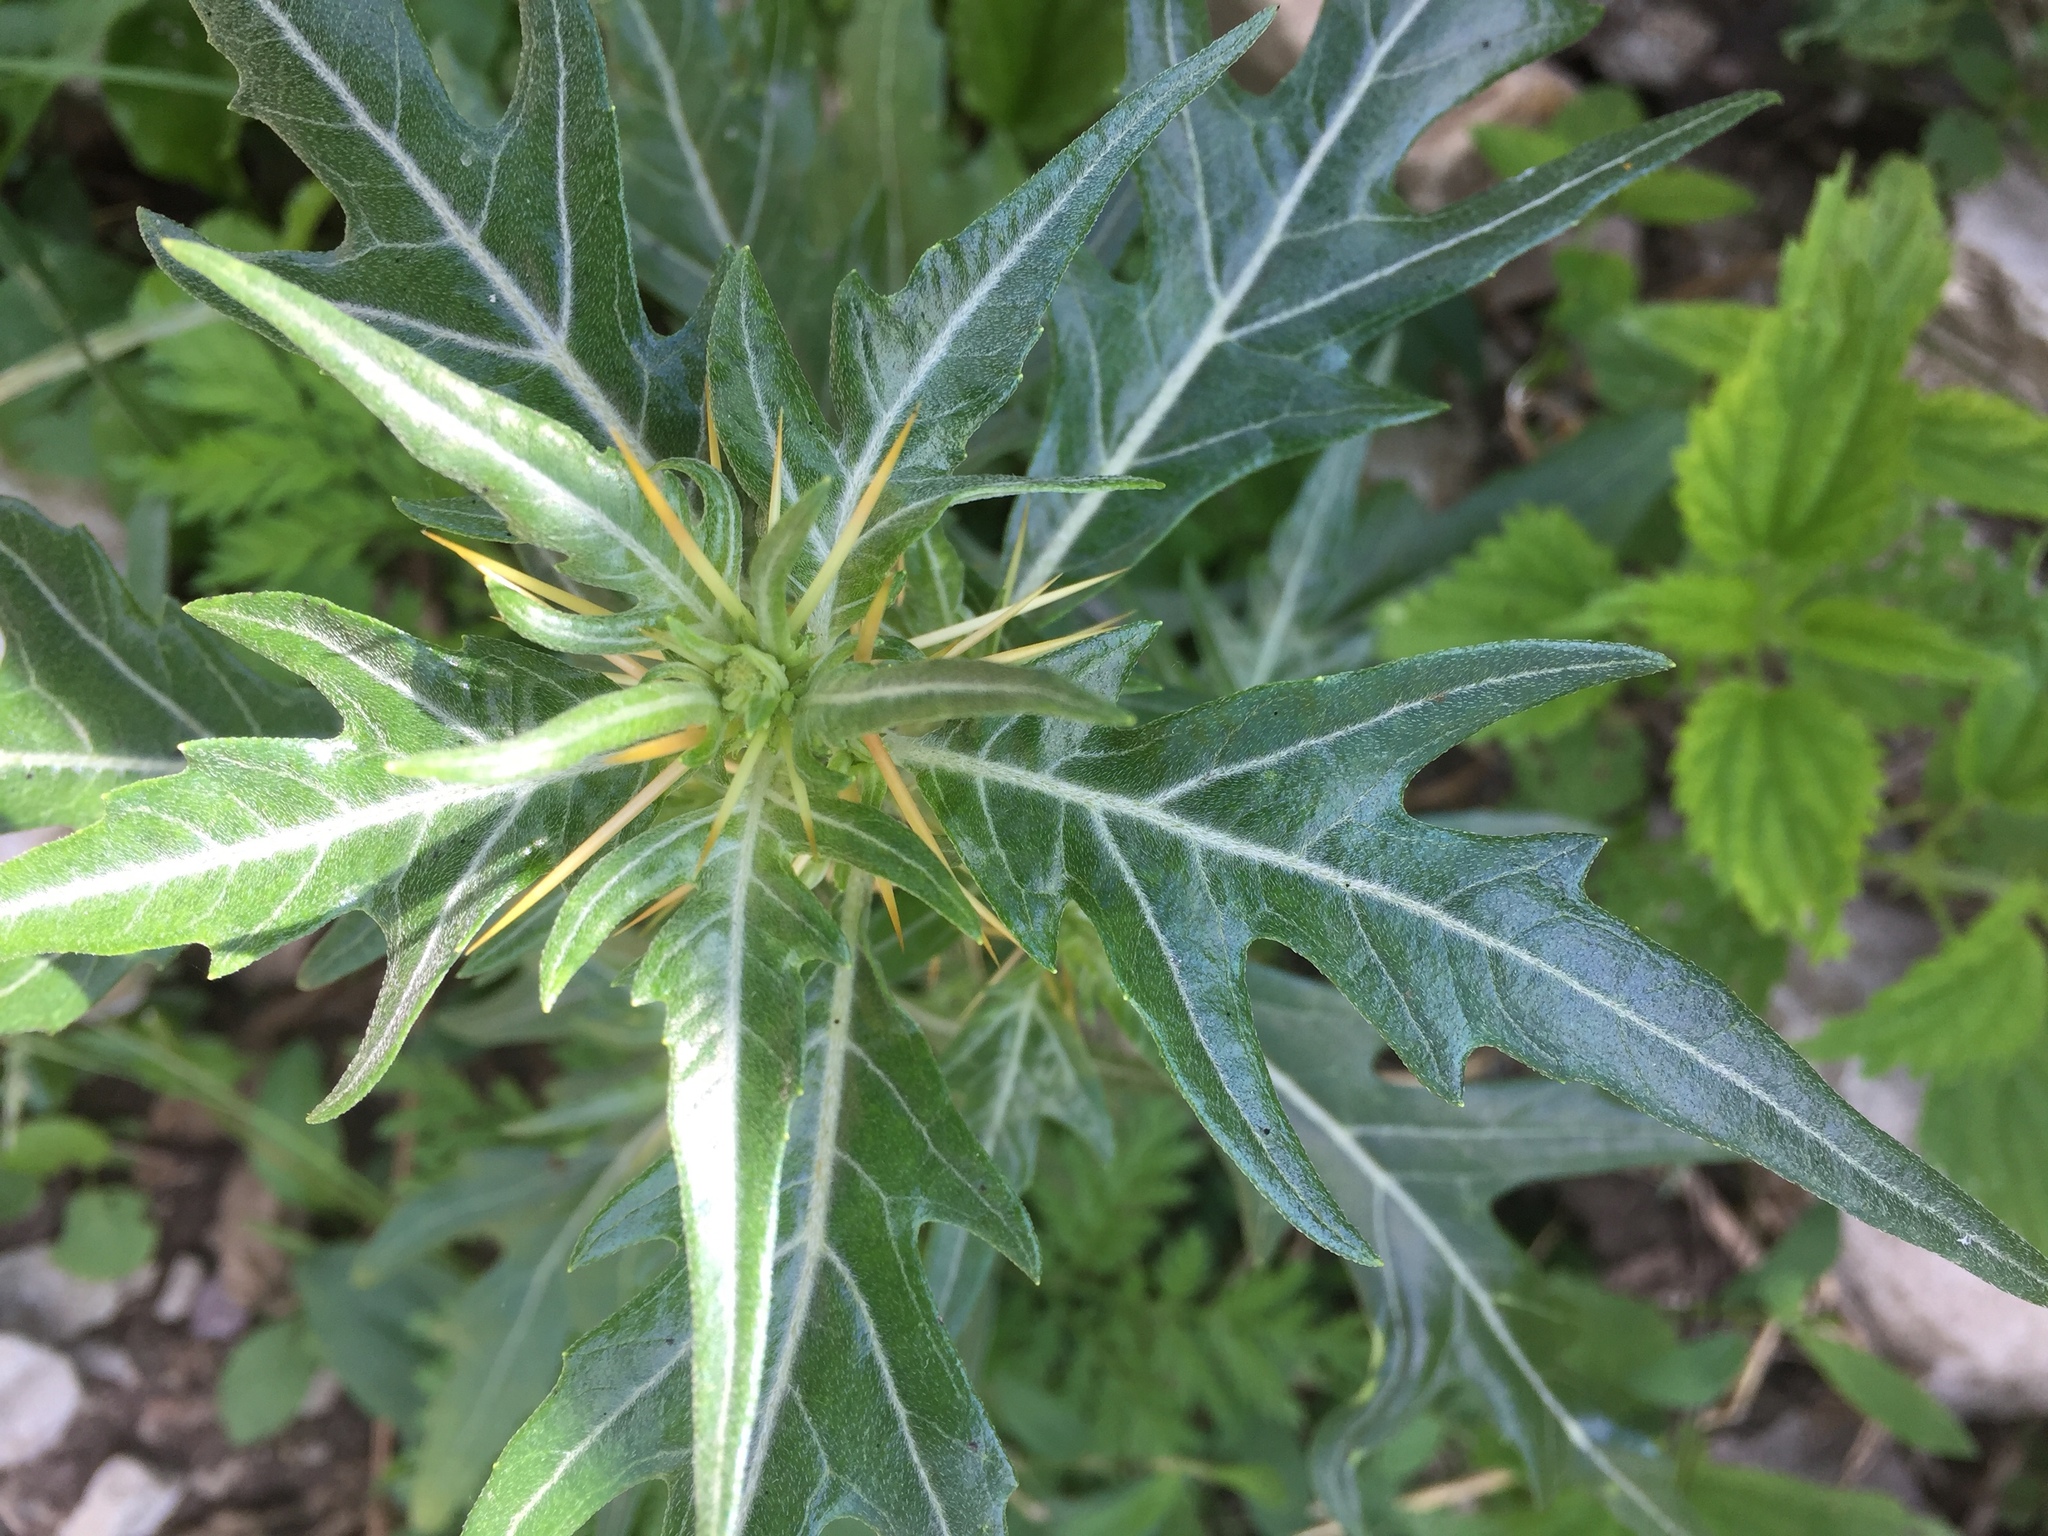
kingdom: Plantae
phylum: Tracheophyta
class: Magnoliopsida
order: Asterales
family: Asteraceae
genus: Xanthium
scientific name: Xanthium spinosum
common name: Spiny cocklebur
